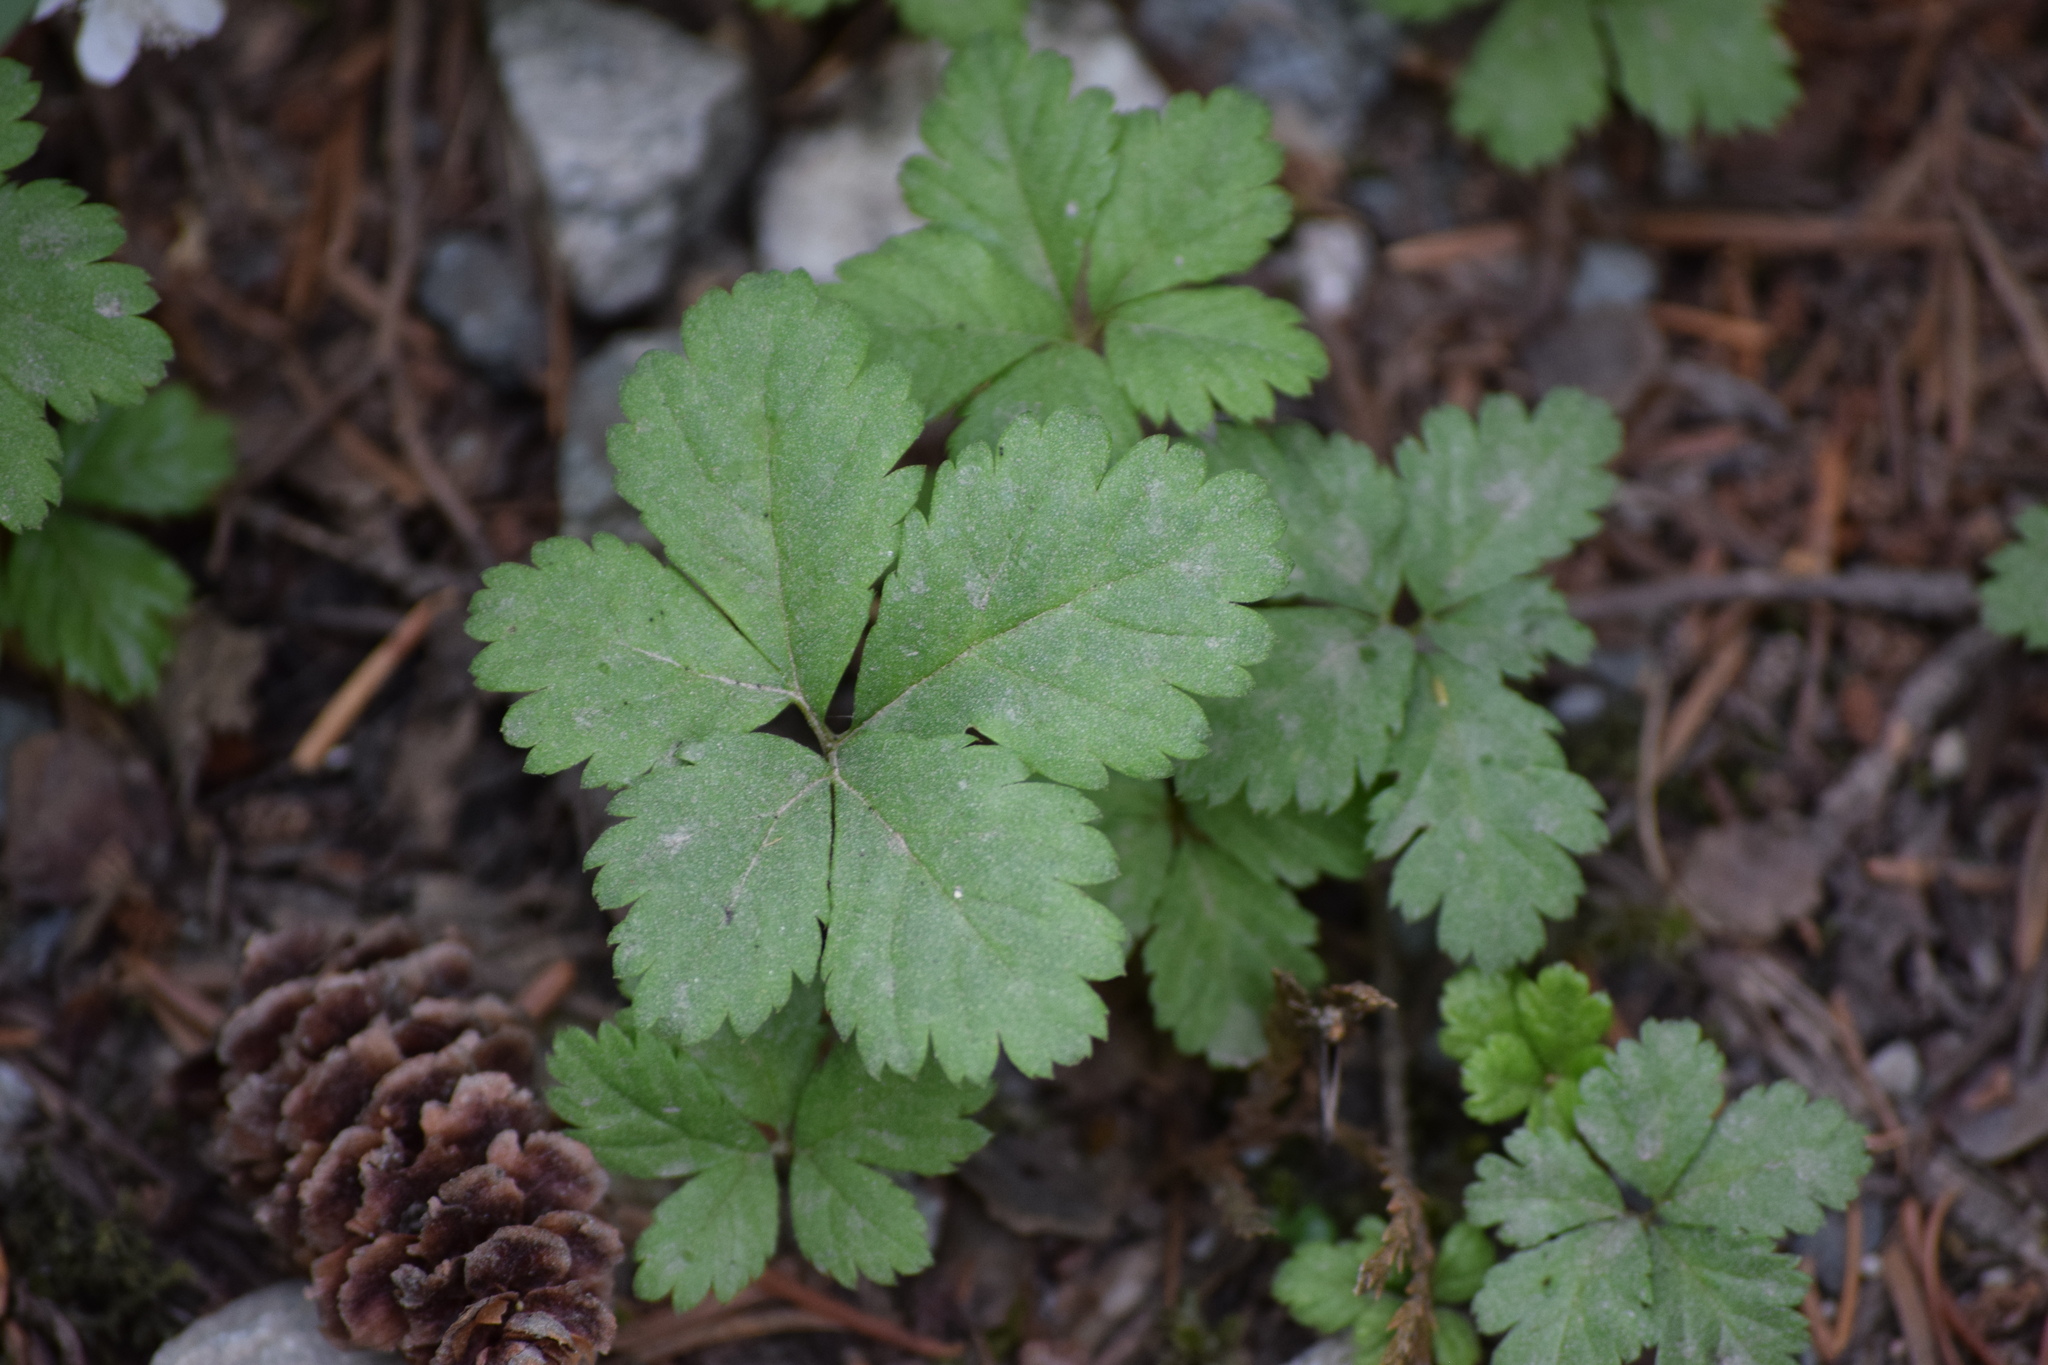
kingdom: Plantae
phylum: Tracheophyta
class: Magnoliopsida
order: Rosales
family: Rosaceae
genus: Rubus
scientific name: Rubus pedatus
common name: Creeping raspberry
